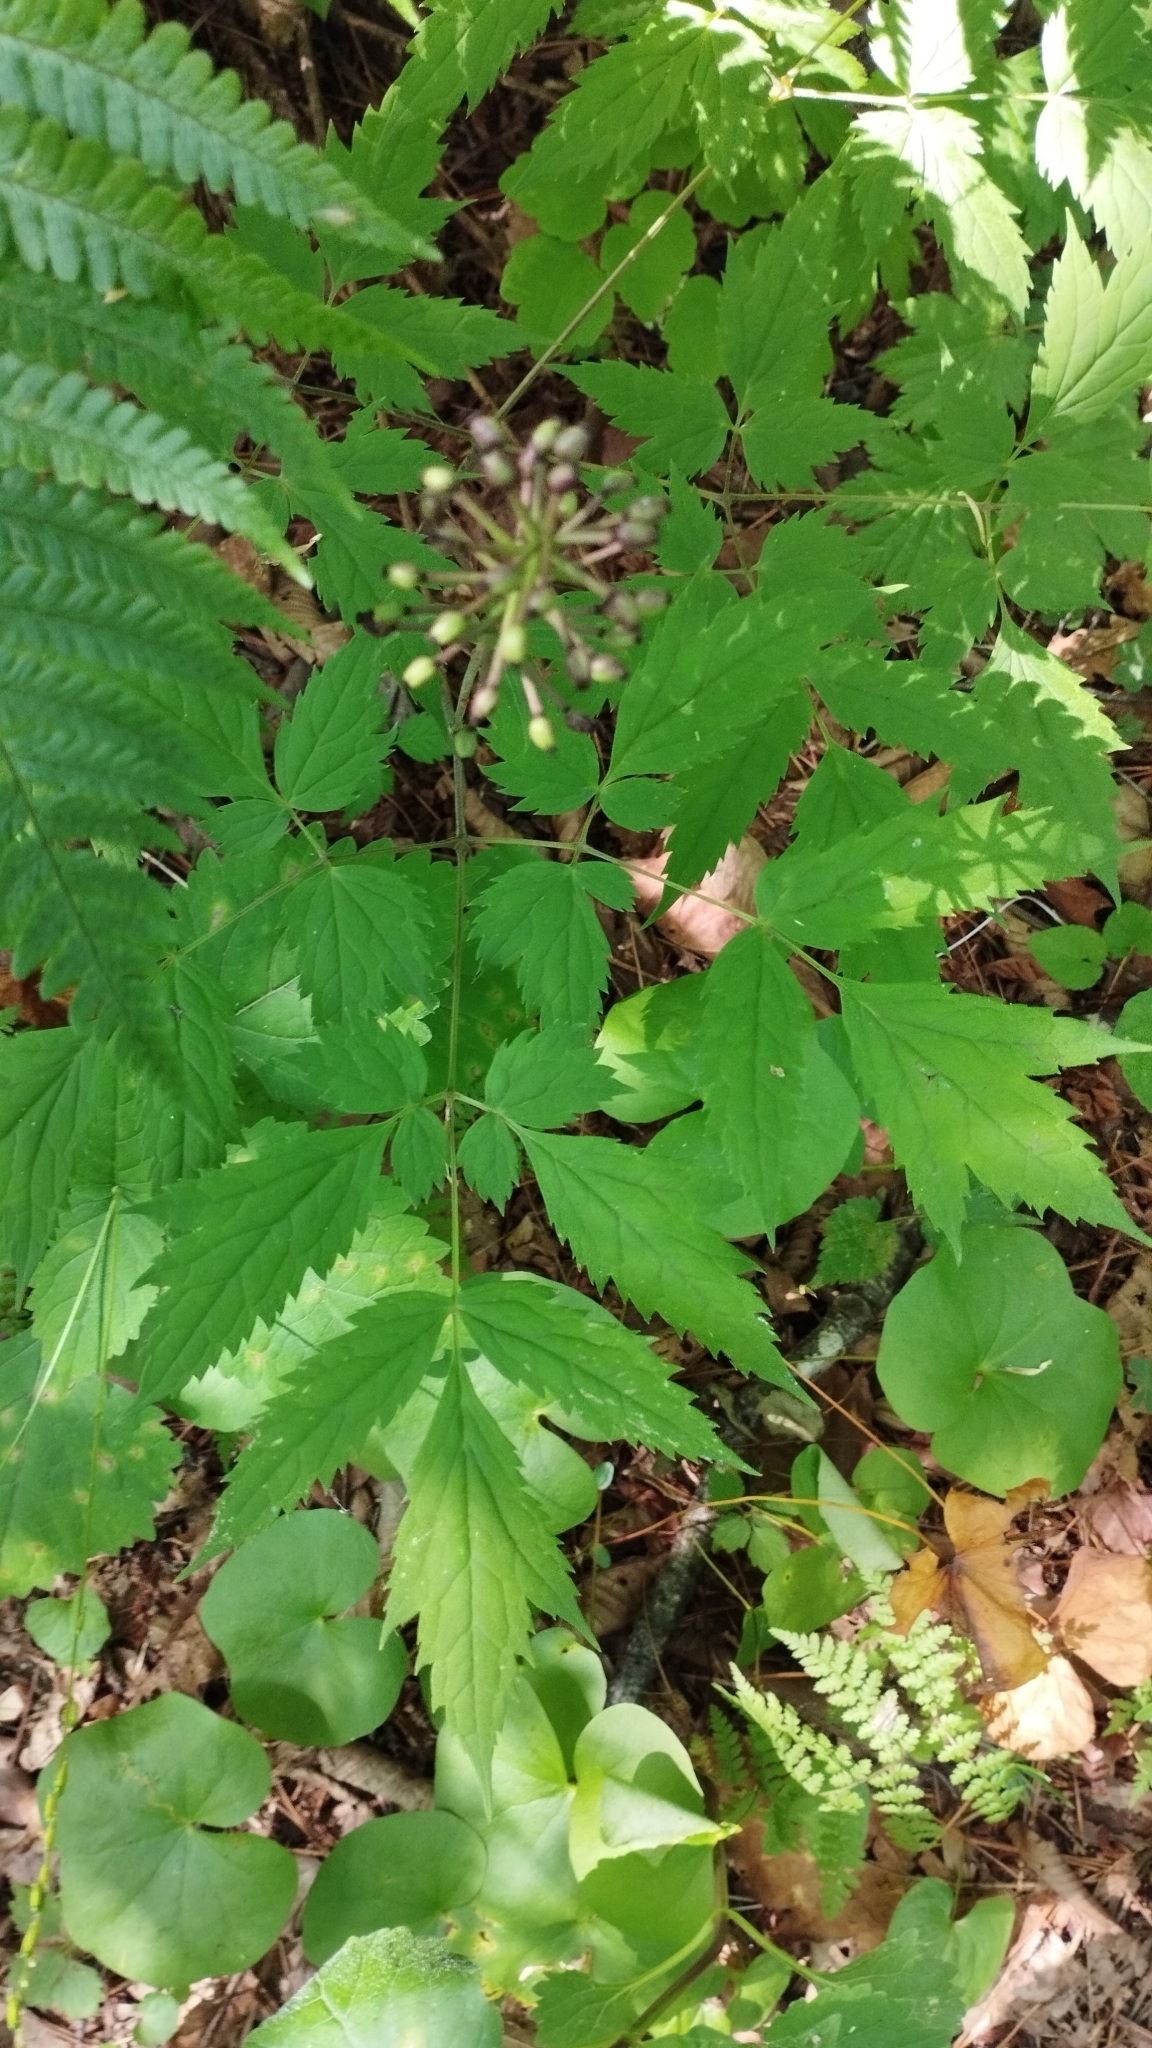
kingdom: Plantae
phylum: Tracheophyta
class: Magnoliopsida
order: Ranunculales
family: Ranunculaceae
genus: Actaea
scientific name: Actaea asiatica
